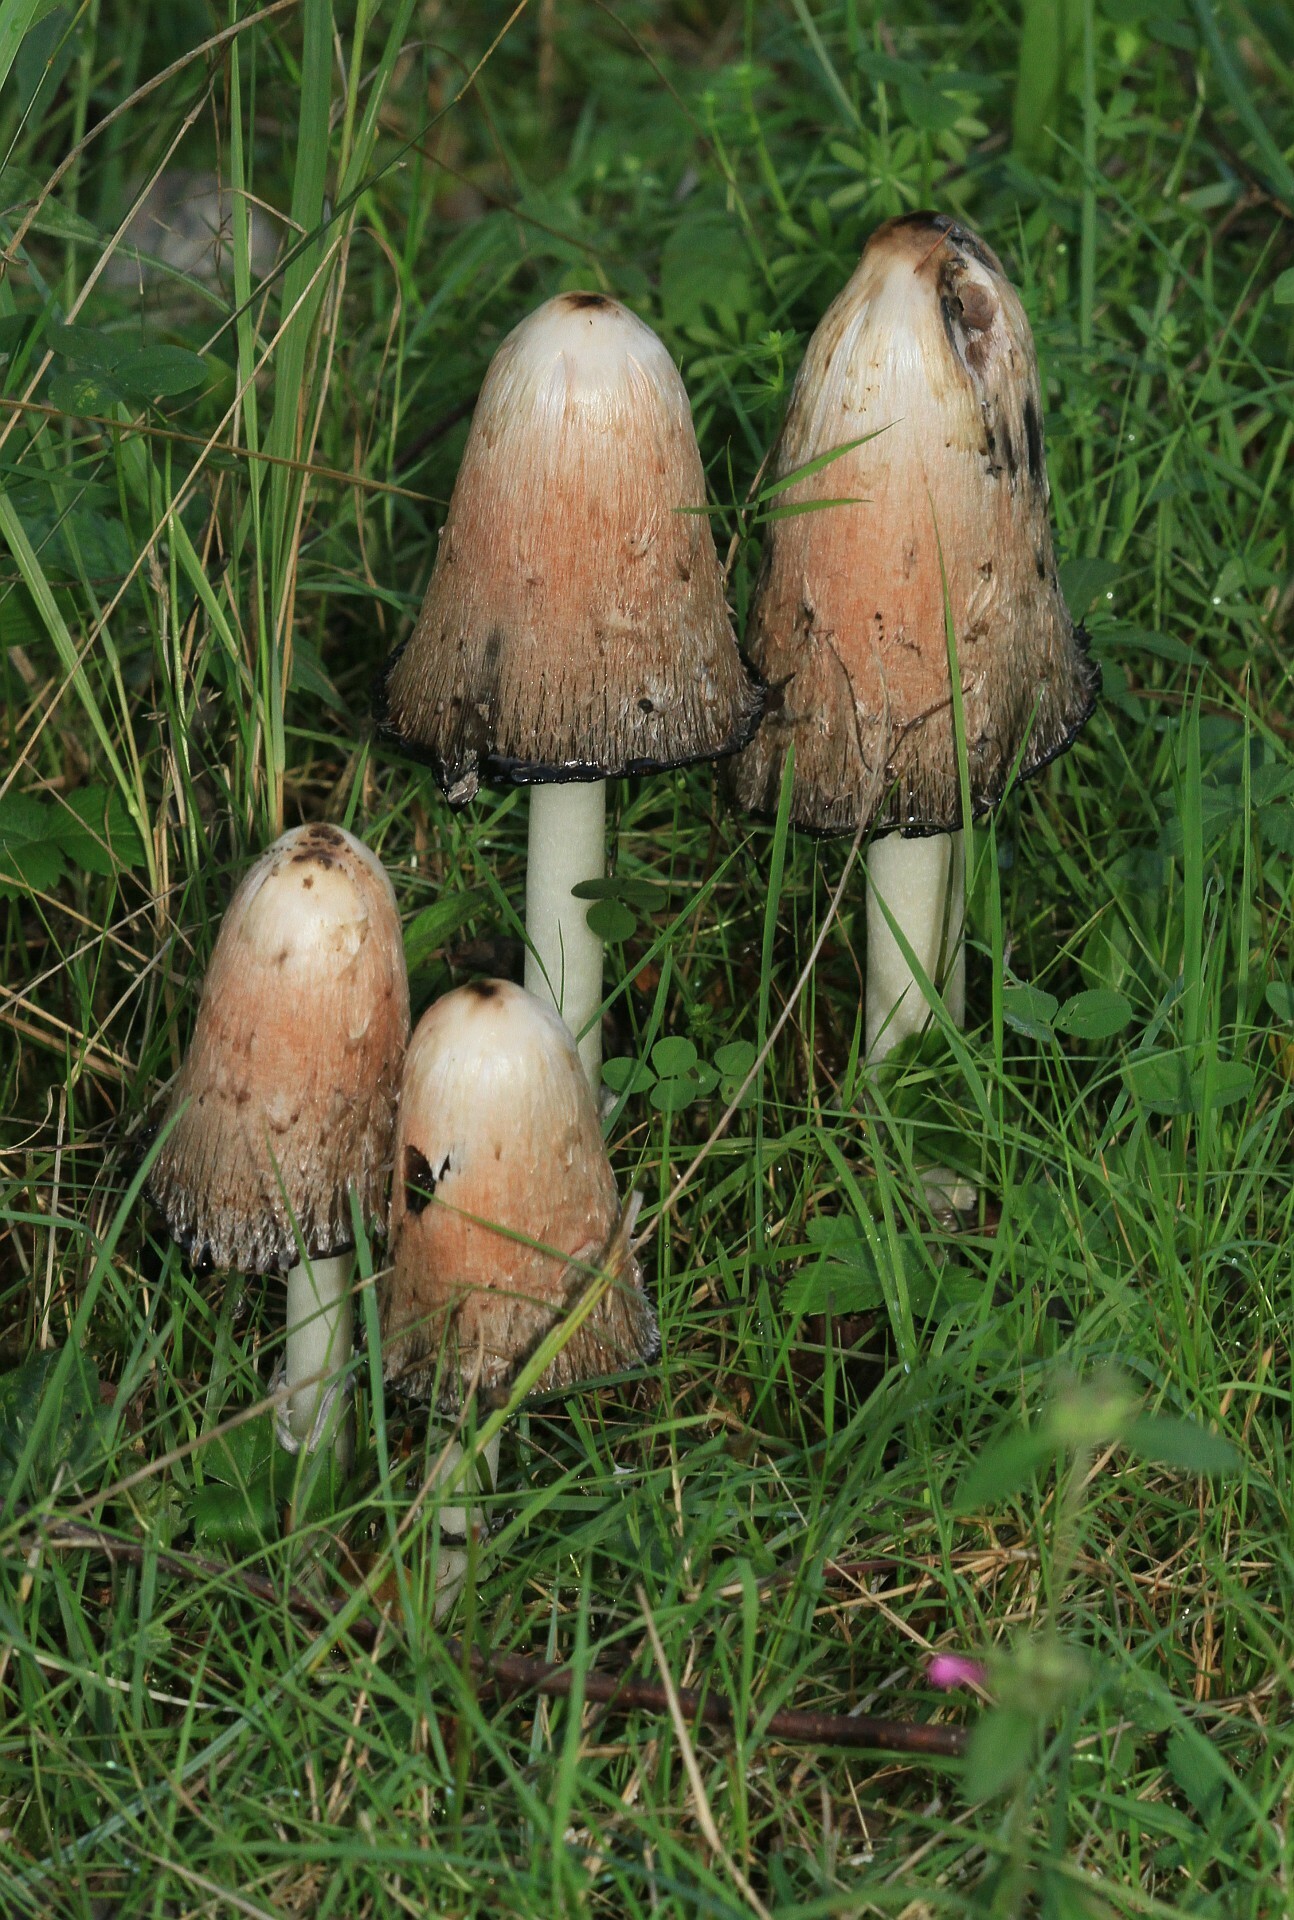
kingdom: Fungi
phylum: Basidiomycota
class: Agaricomycetes
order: Agaricales
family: Agaricaceae
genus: Coprinus
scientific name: Coprinus comatus
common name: Lawyer's wig
